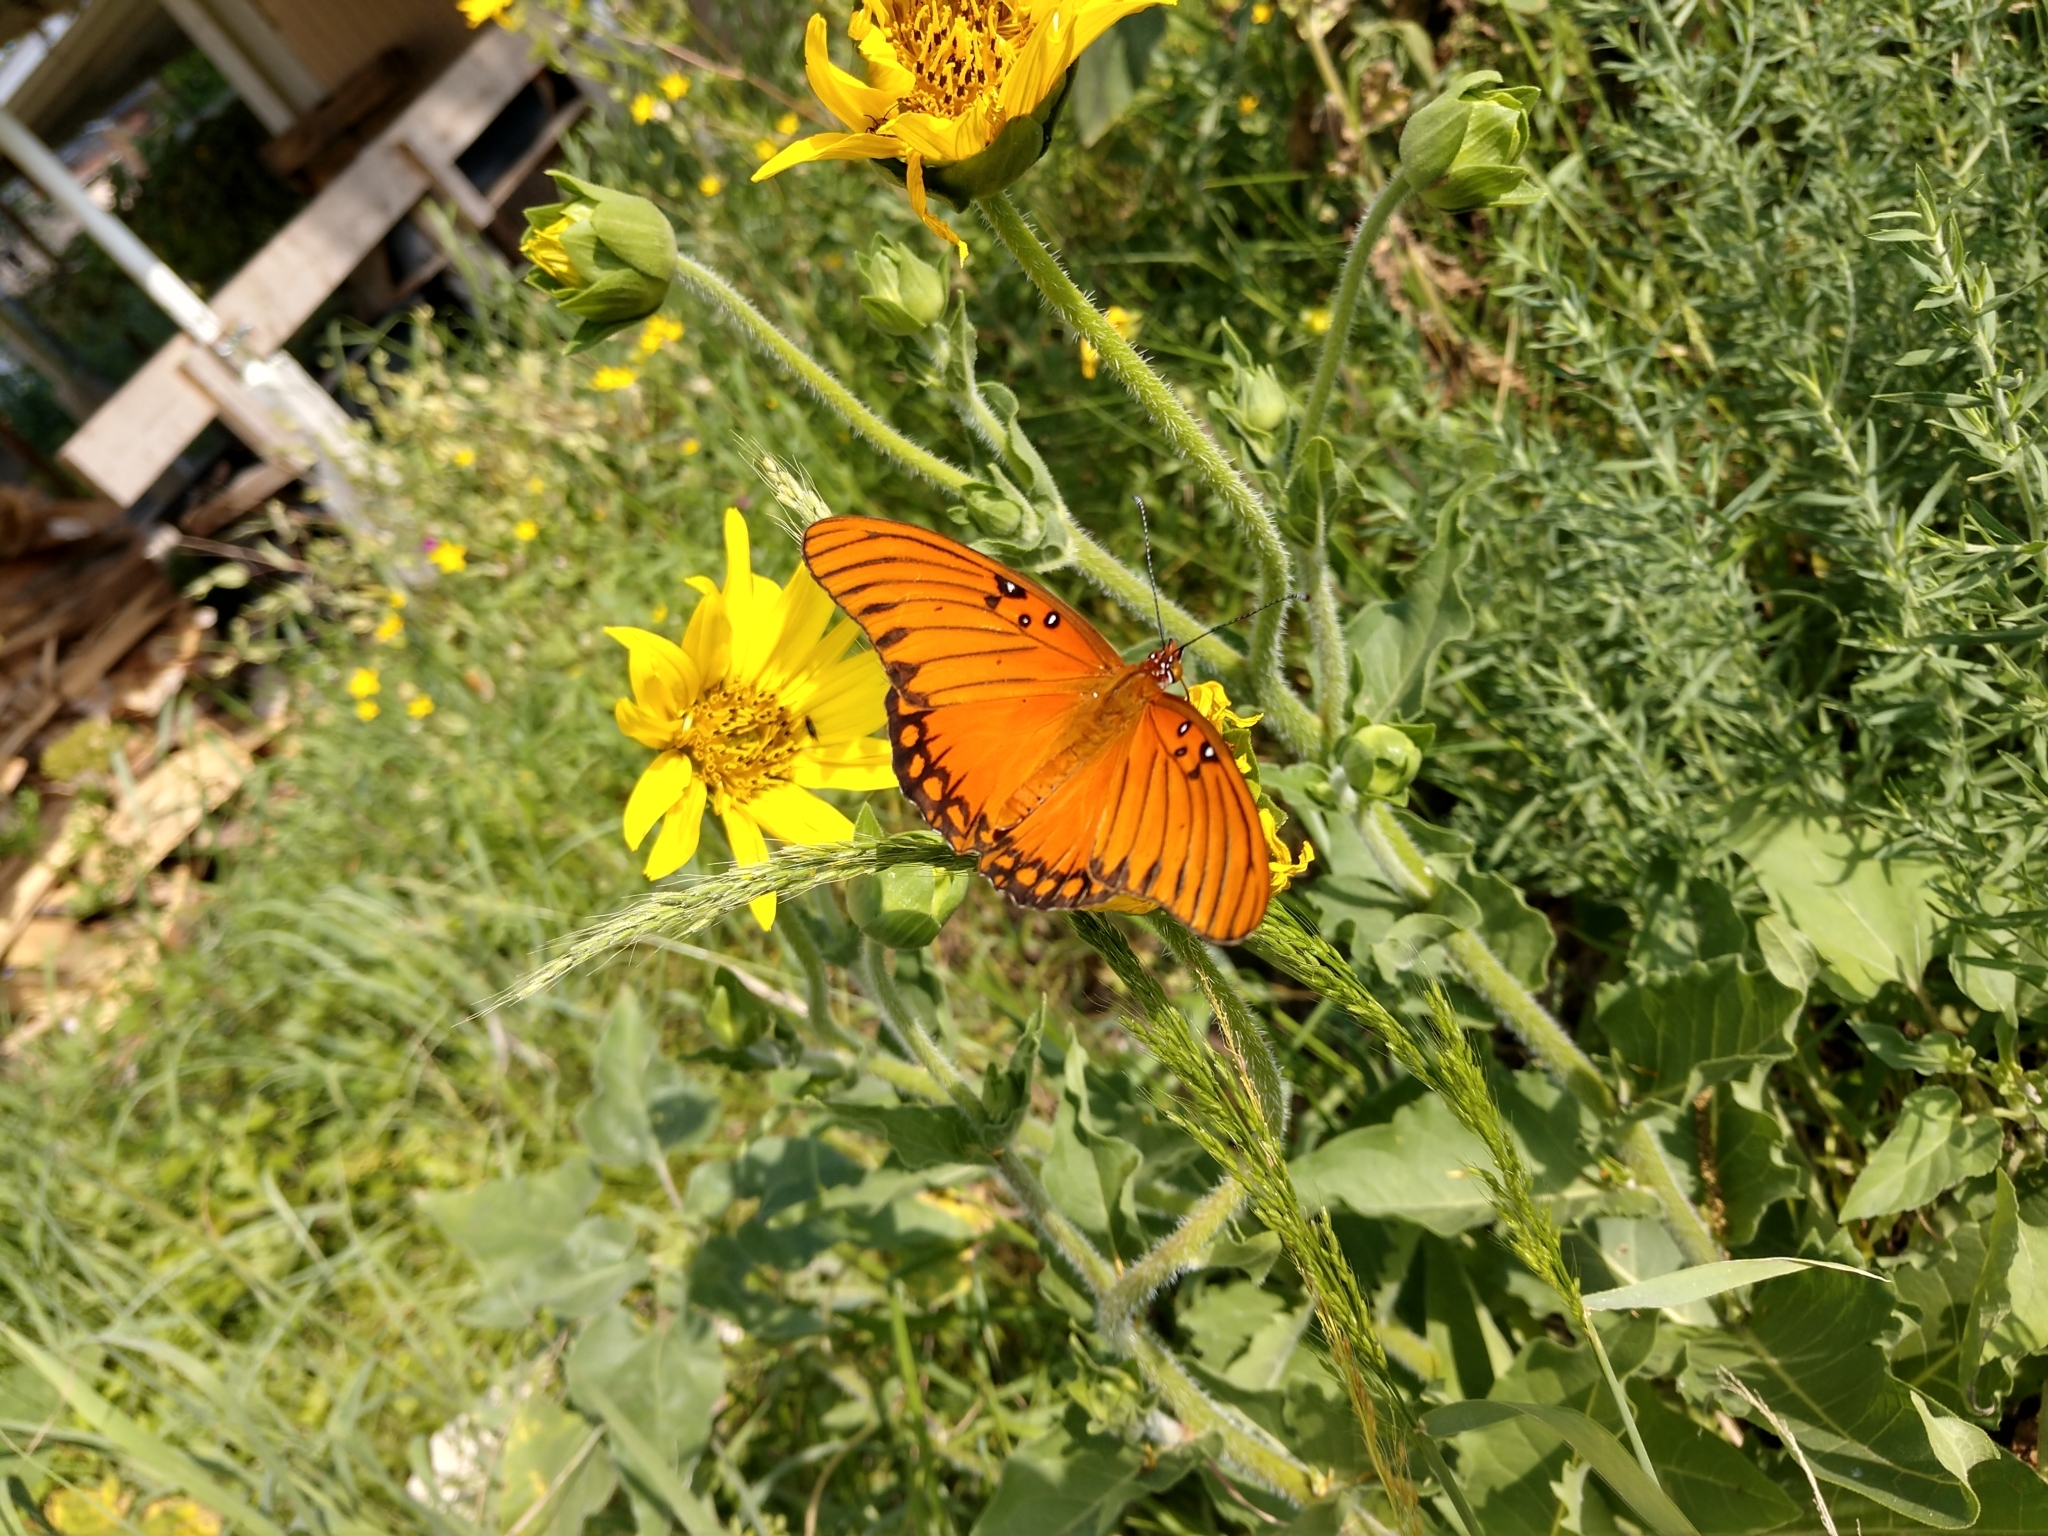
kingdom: Animalia
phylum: Arthropoda
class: Insecta
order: Lepidoptera
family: Nymphalidae
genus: Dione
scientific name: Dione vanillae
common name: Gulf fritillary
